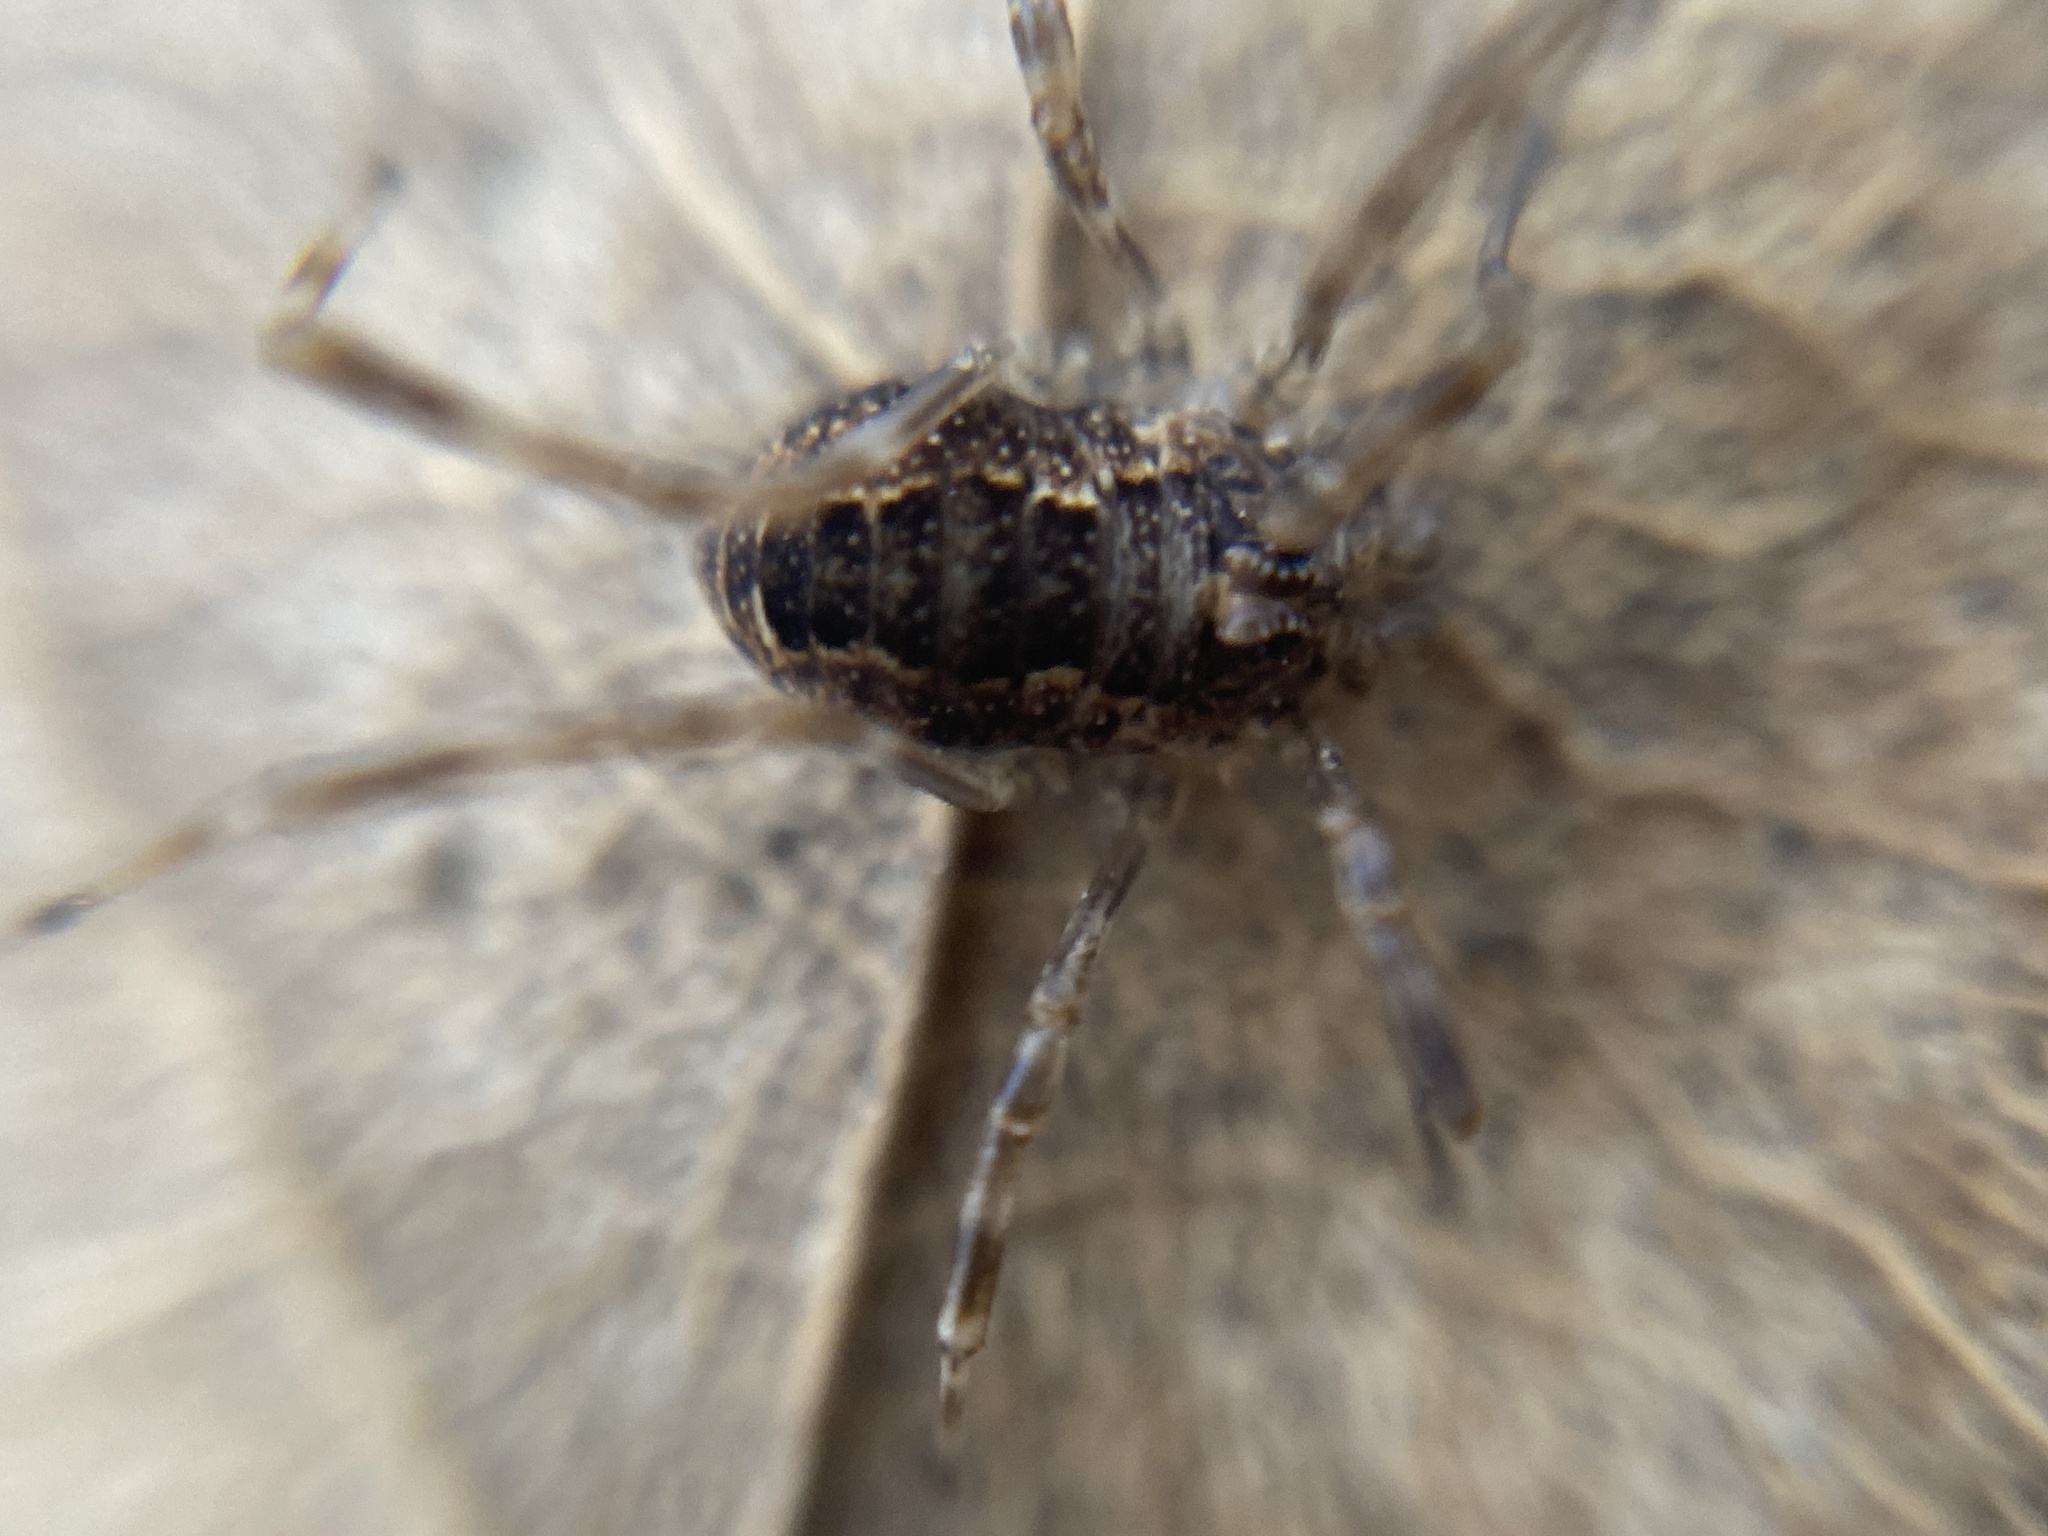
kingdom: Animalia
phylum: Arthropoda
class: Arachnida
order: Opiliones
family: Phalangiidae
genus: Rilaena
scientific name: Rilaena triangularis
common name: Spring harvestman
